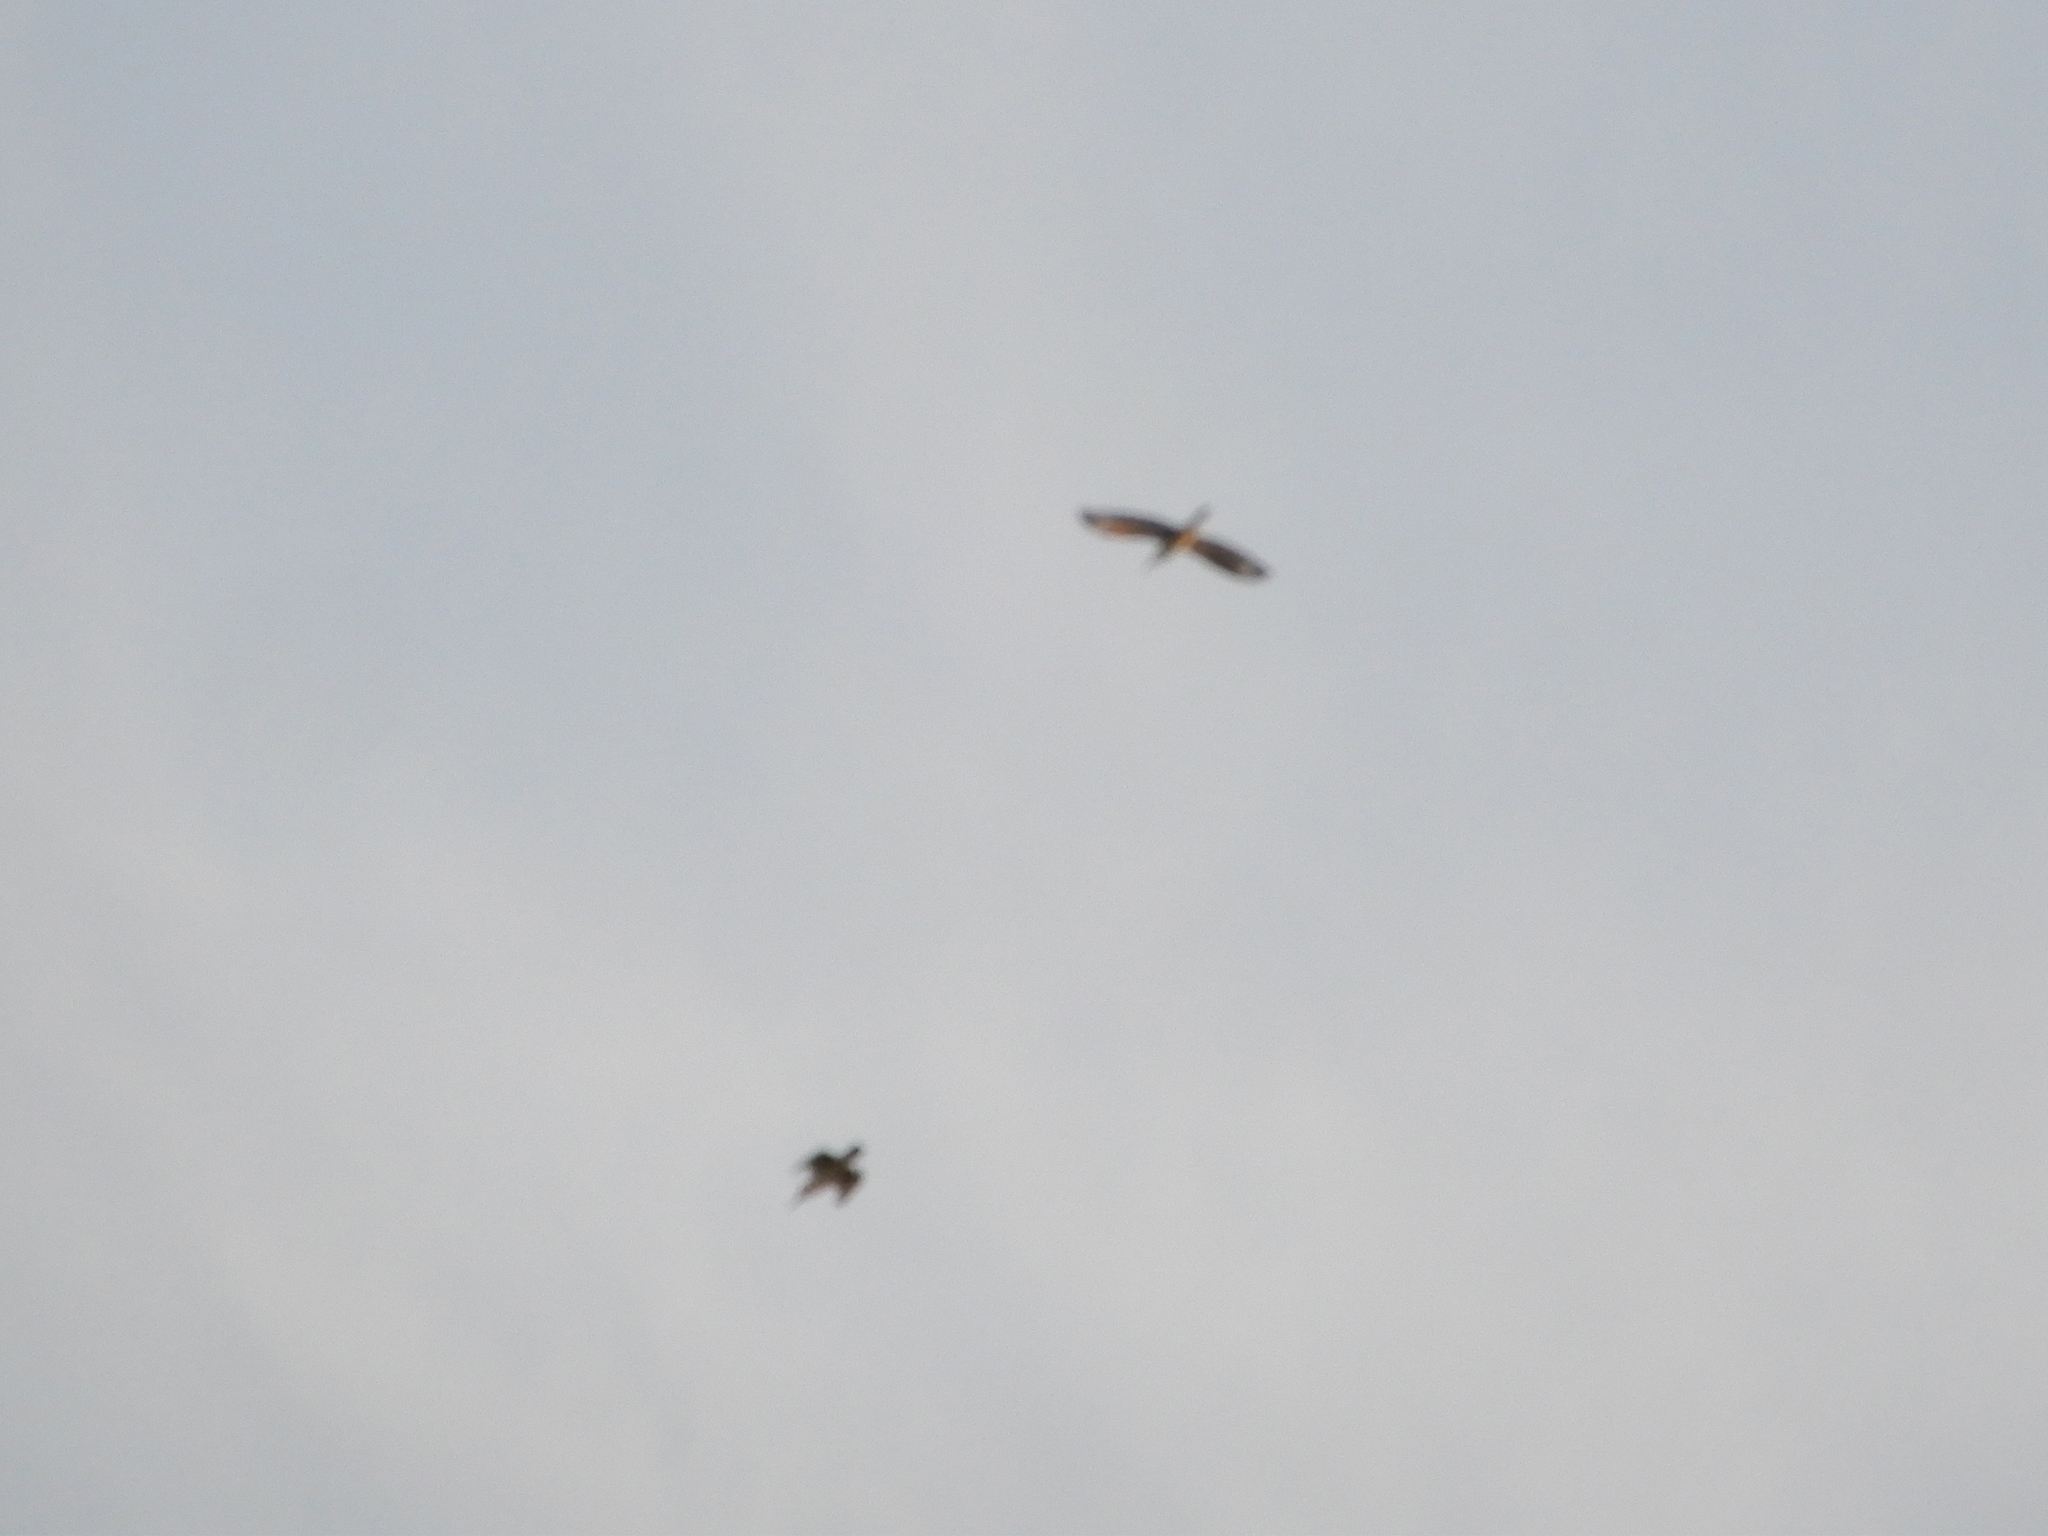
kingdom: Animalia
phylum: Chordata
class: Aves
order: Coraciiformes
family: Alcedinidae
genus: Megaceryle
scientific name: Megaceryle alcyon
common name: Belted kingfisher
